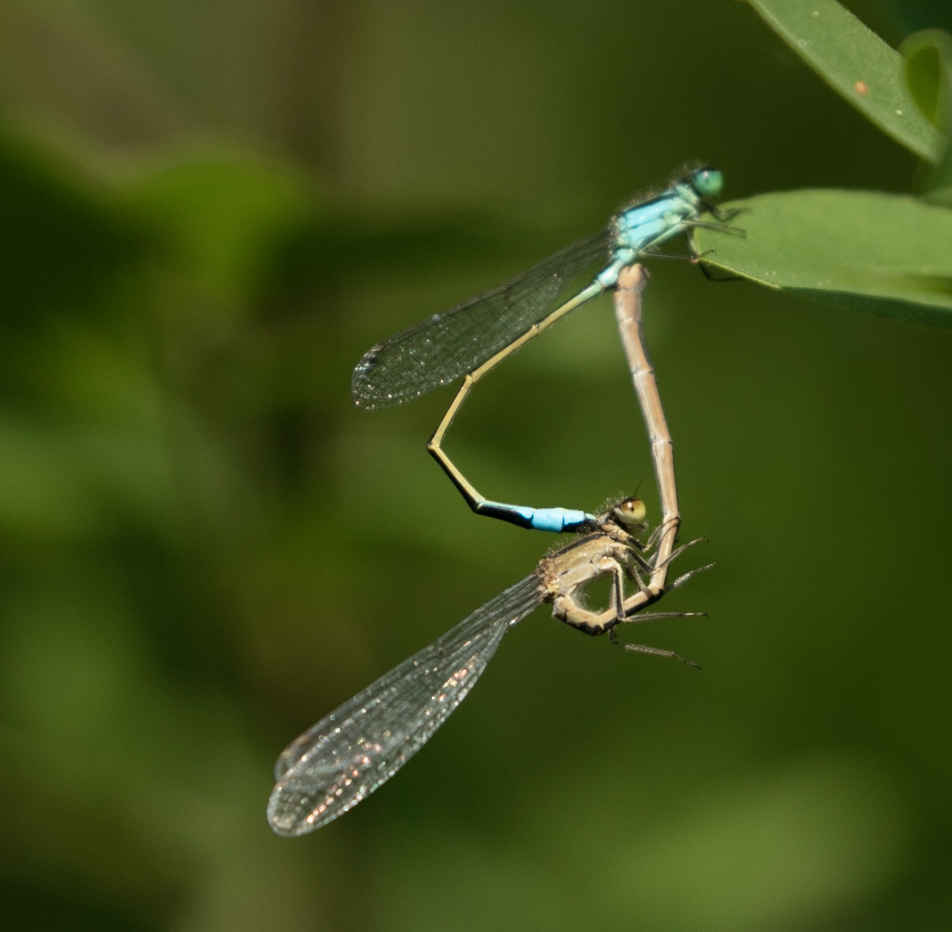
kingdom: Animalia
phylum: Arthropoda
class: Insecta
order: Odonata
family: Coenagrionidae
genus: Ischnura
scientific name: Ischnura elegans
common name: Blue-tailed damselfly
